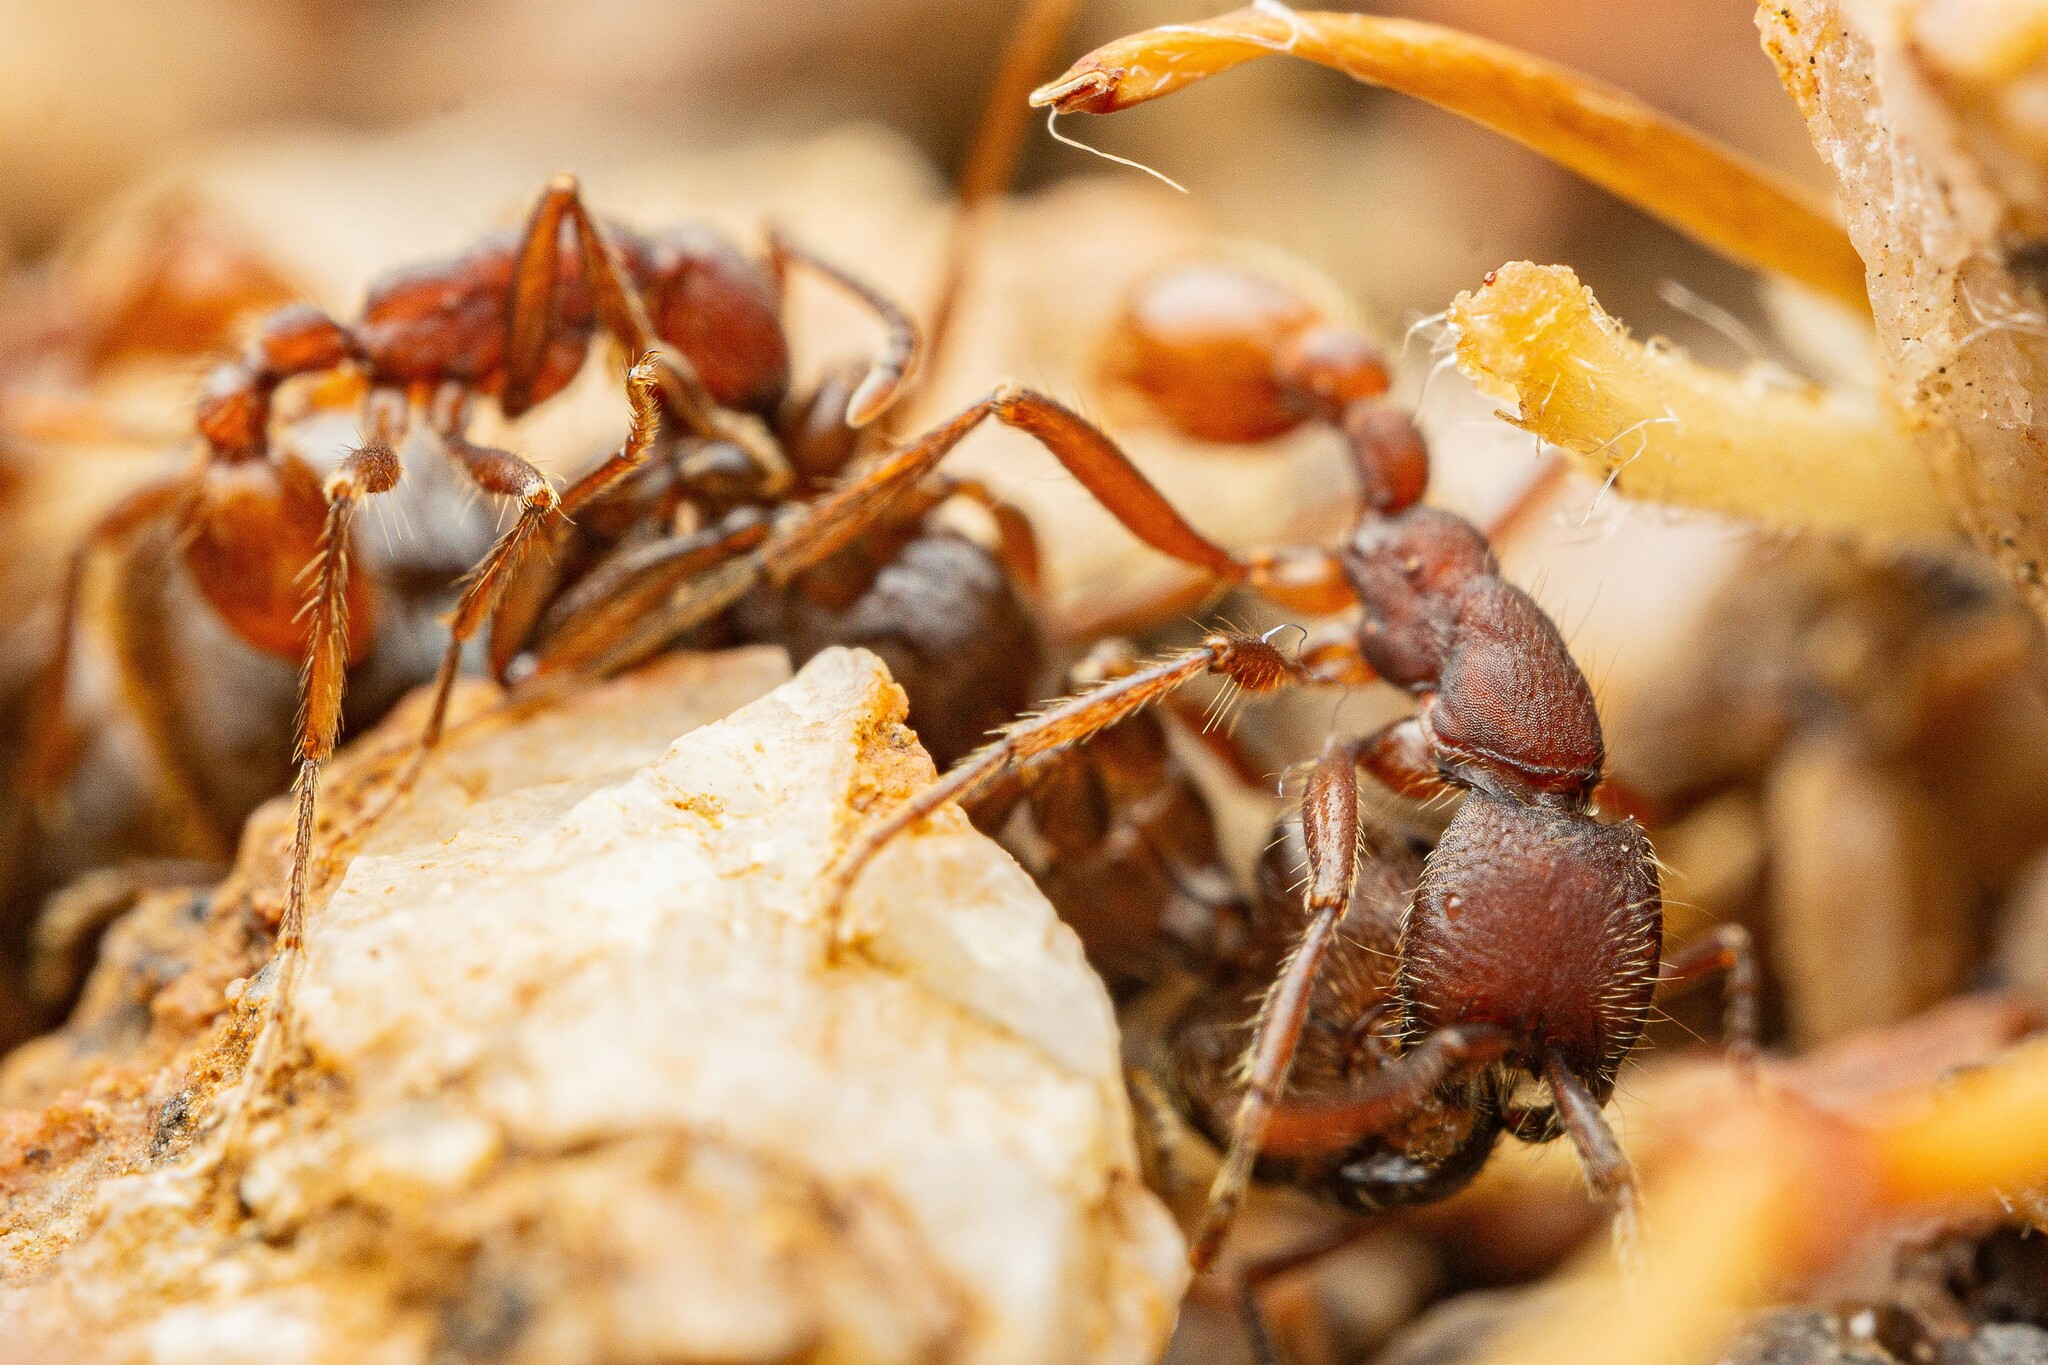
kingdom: Animalia
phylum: Arthropoda
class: Insecta
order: Hymenoptera
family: Formicidae
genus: Neivamyrmex
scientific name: Neivamyrmex
